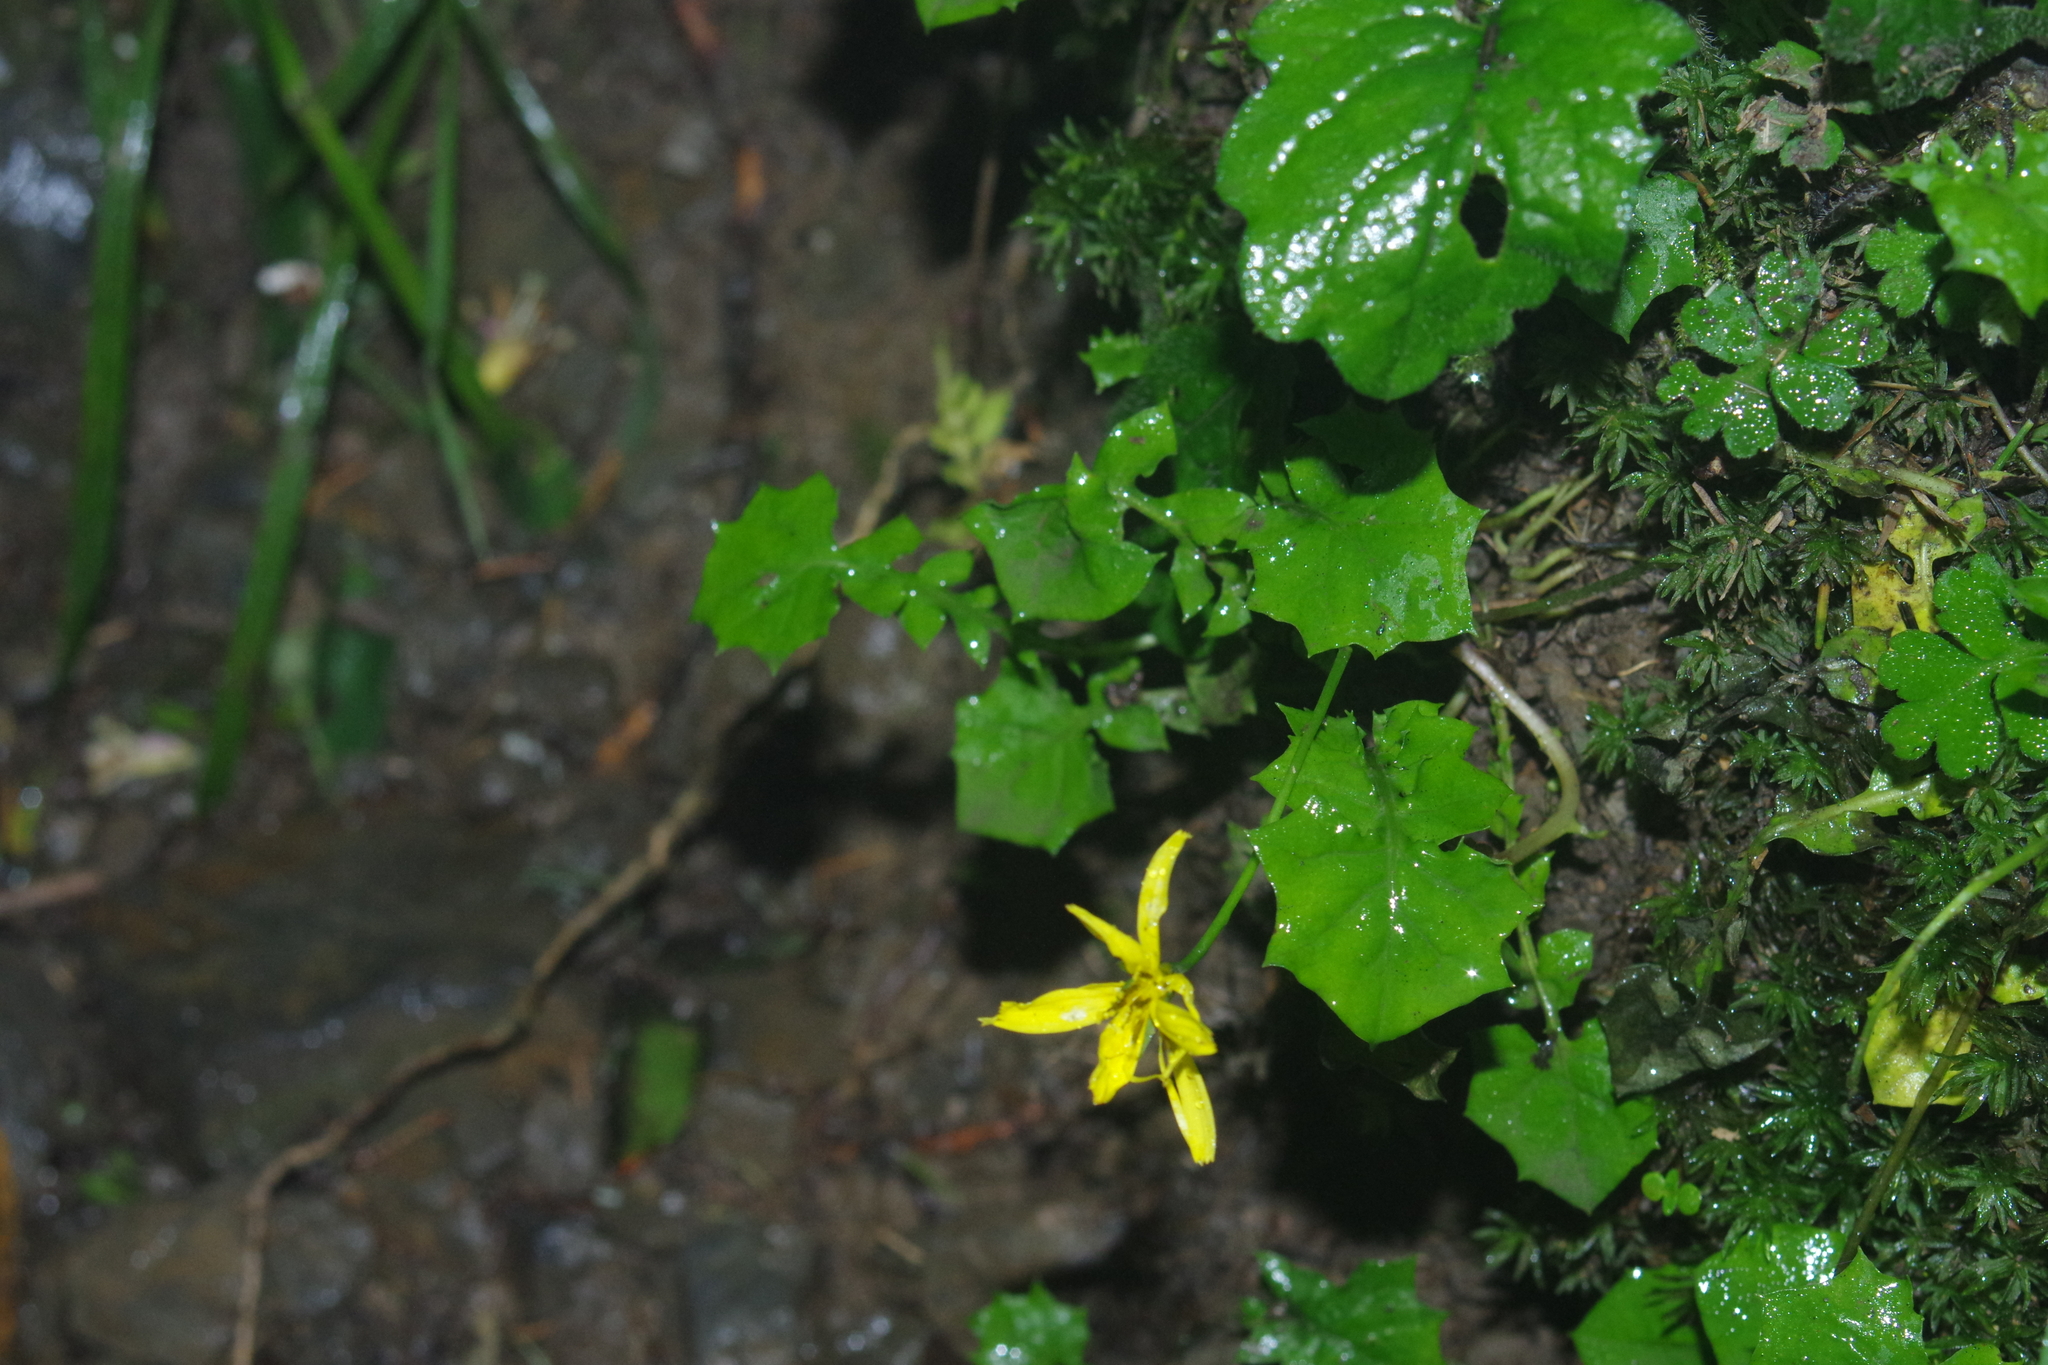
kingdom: Plantae
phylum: Tracheophyta
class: Magnoliopsida
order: Asterales
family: Asteraceae
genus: Lapsanastrum
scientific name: Lapsanastrum takasei
